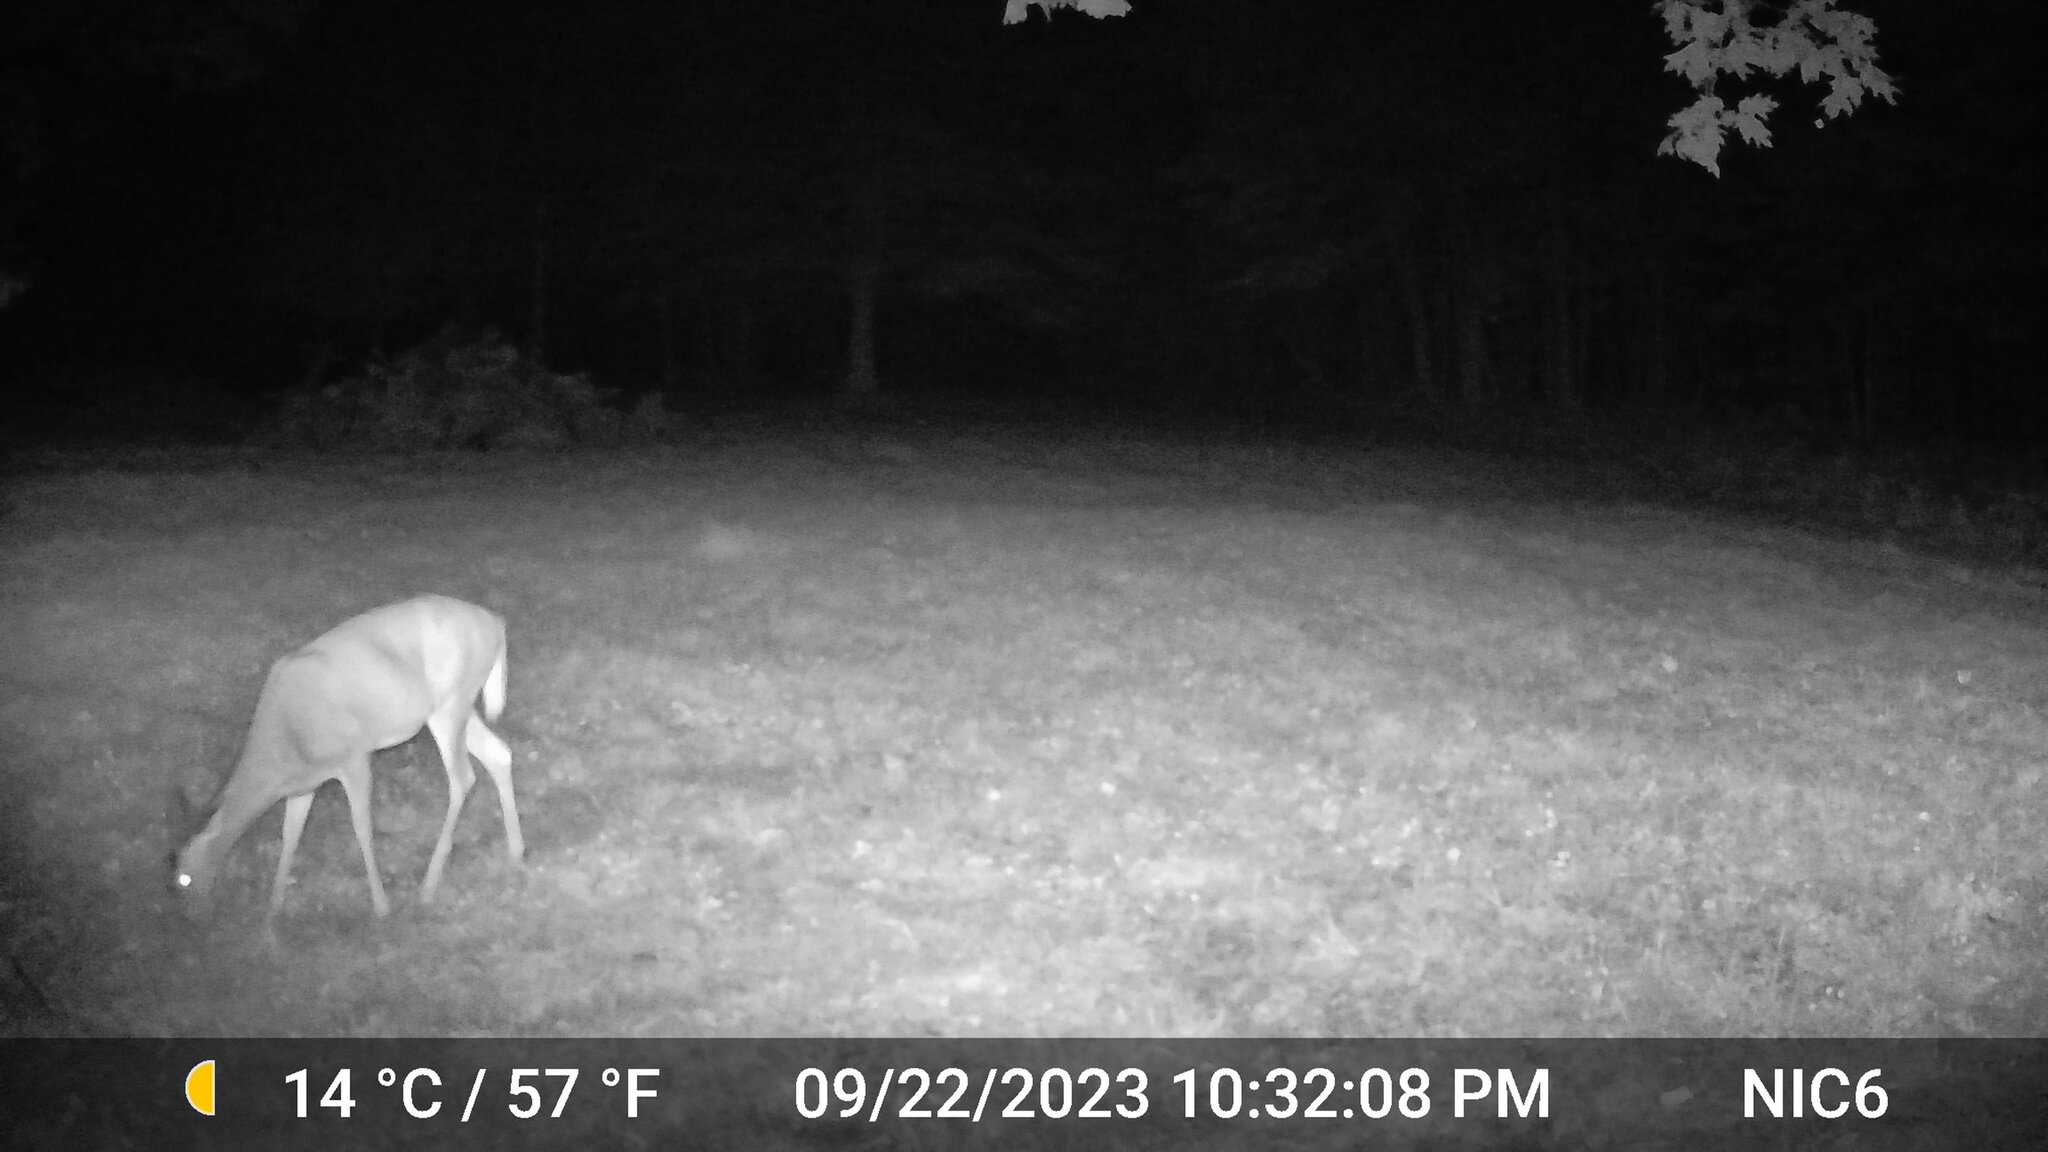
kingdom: Animalia
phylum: Chordata
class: Mammalia
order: Artiodactyla
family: Cervidae
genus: Odocoileus
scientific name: Odocoileus virginianus
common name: White-tailed deer
